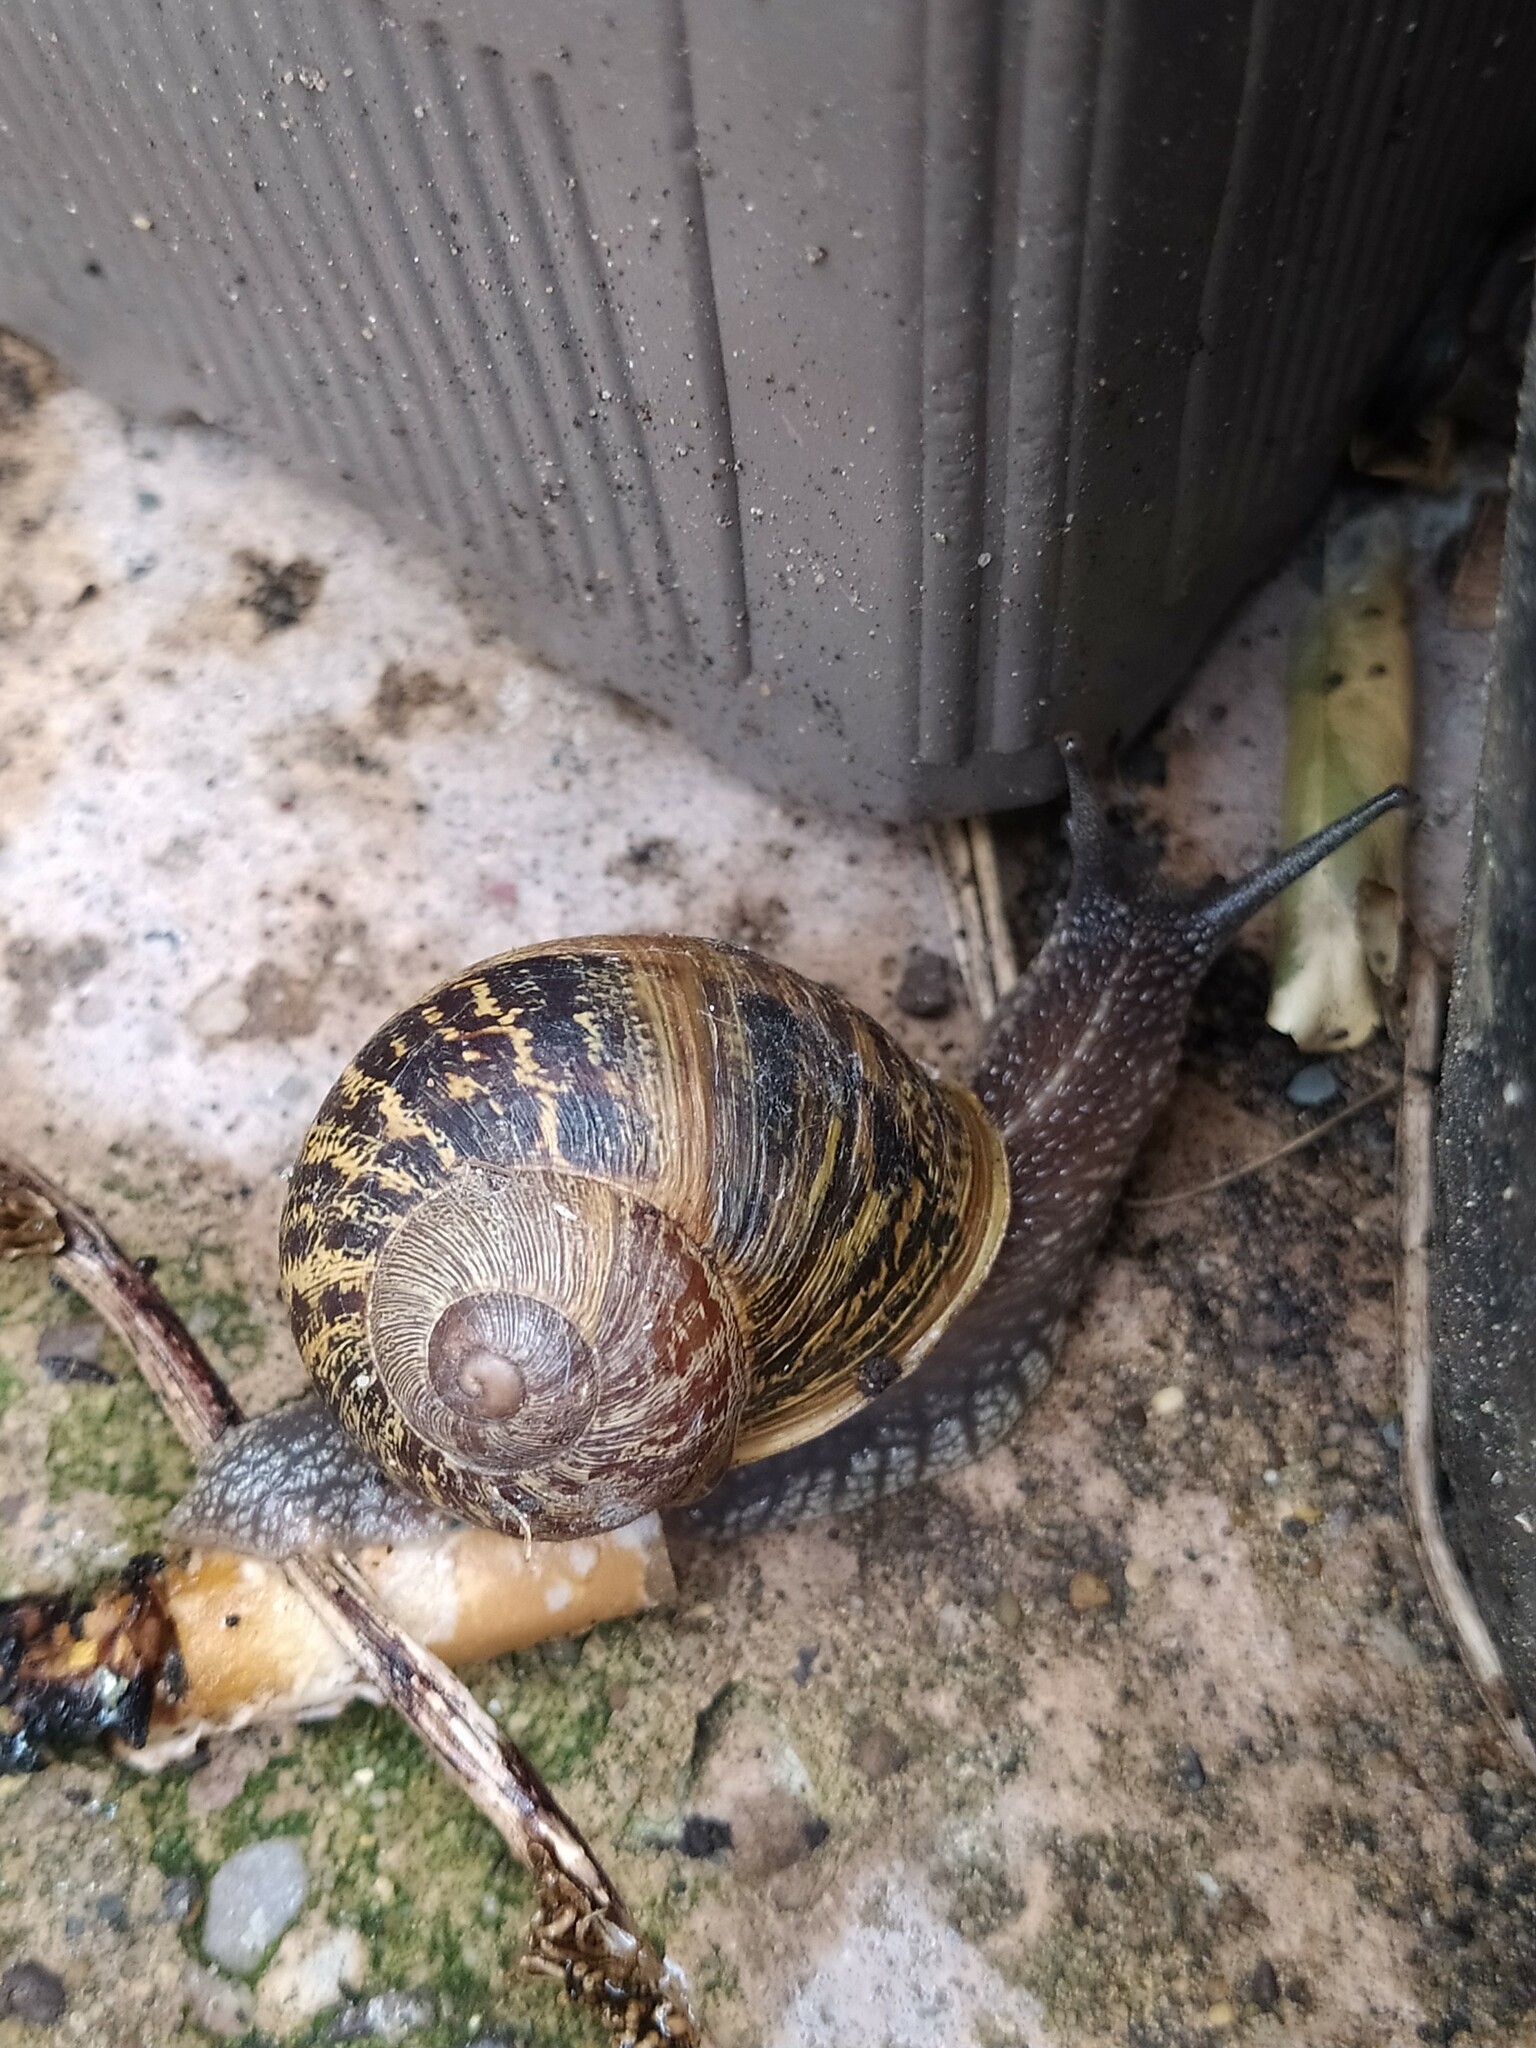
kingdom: Animalia
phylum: Mollusca
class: Gastropoda
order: Stylommatophora
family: Helicidae
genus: Cornu
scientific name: Cornu aspersum
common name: Brown garden snail
